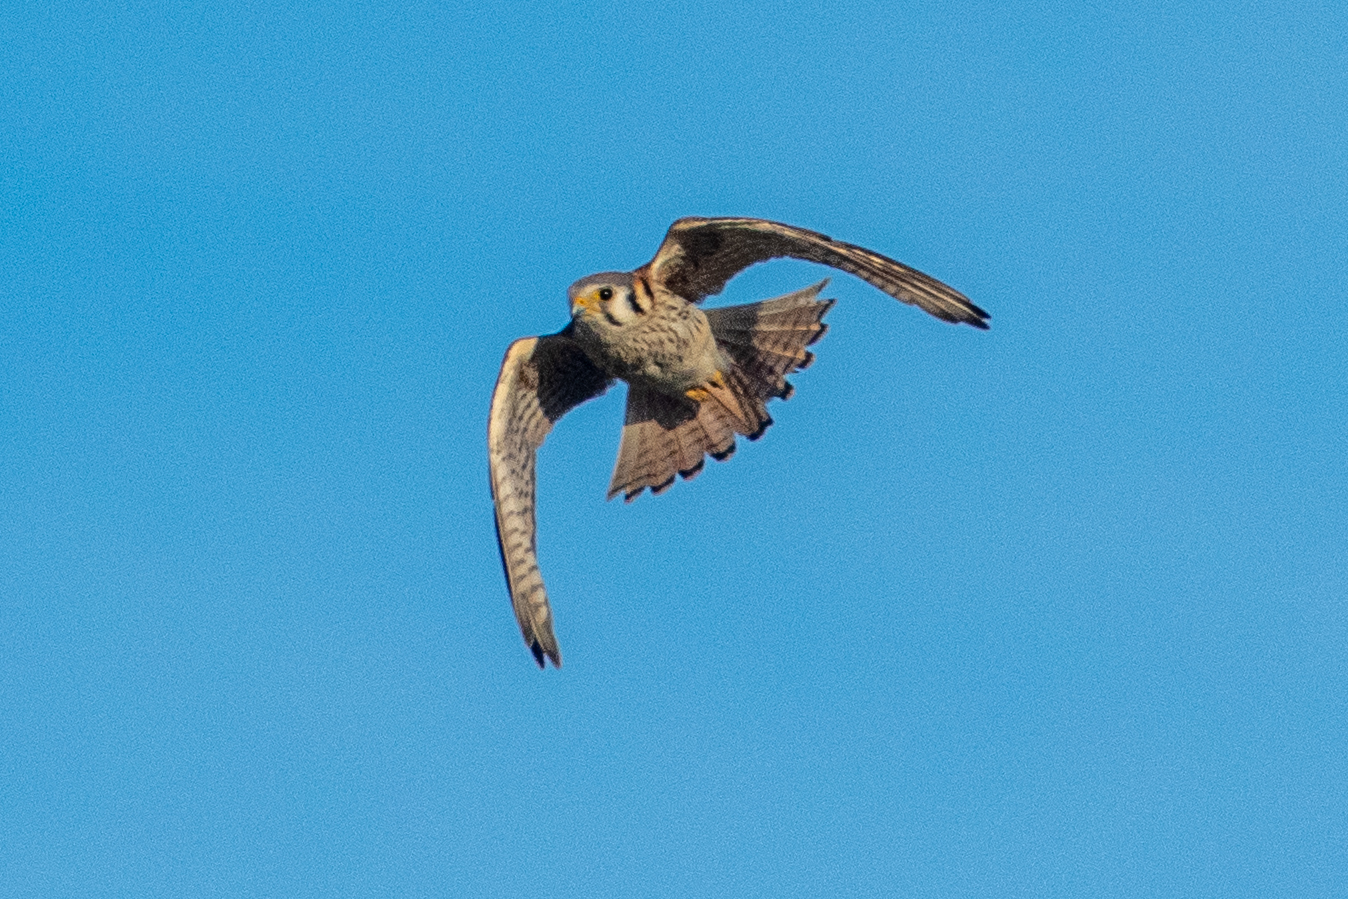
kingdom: Animalia
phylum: Chordata
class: Aves
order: Falconiformes
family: Falconidae
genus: Falco
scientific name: Falco sparverius
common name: American kestrel
